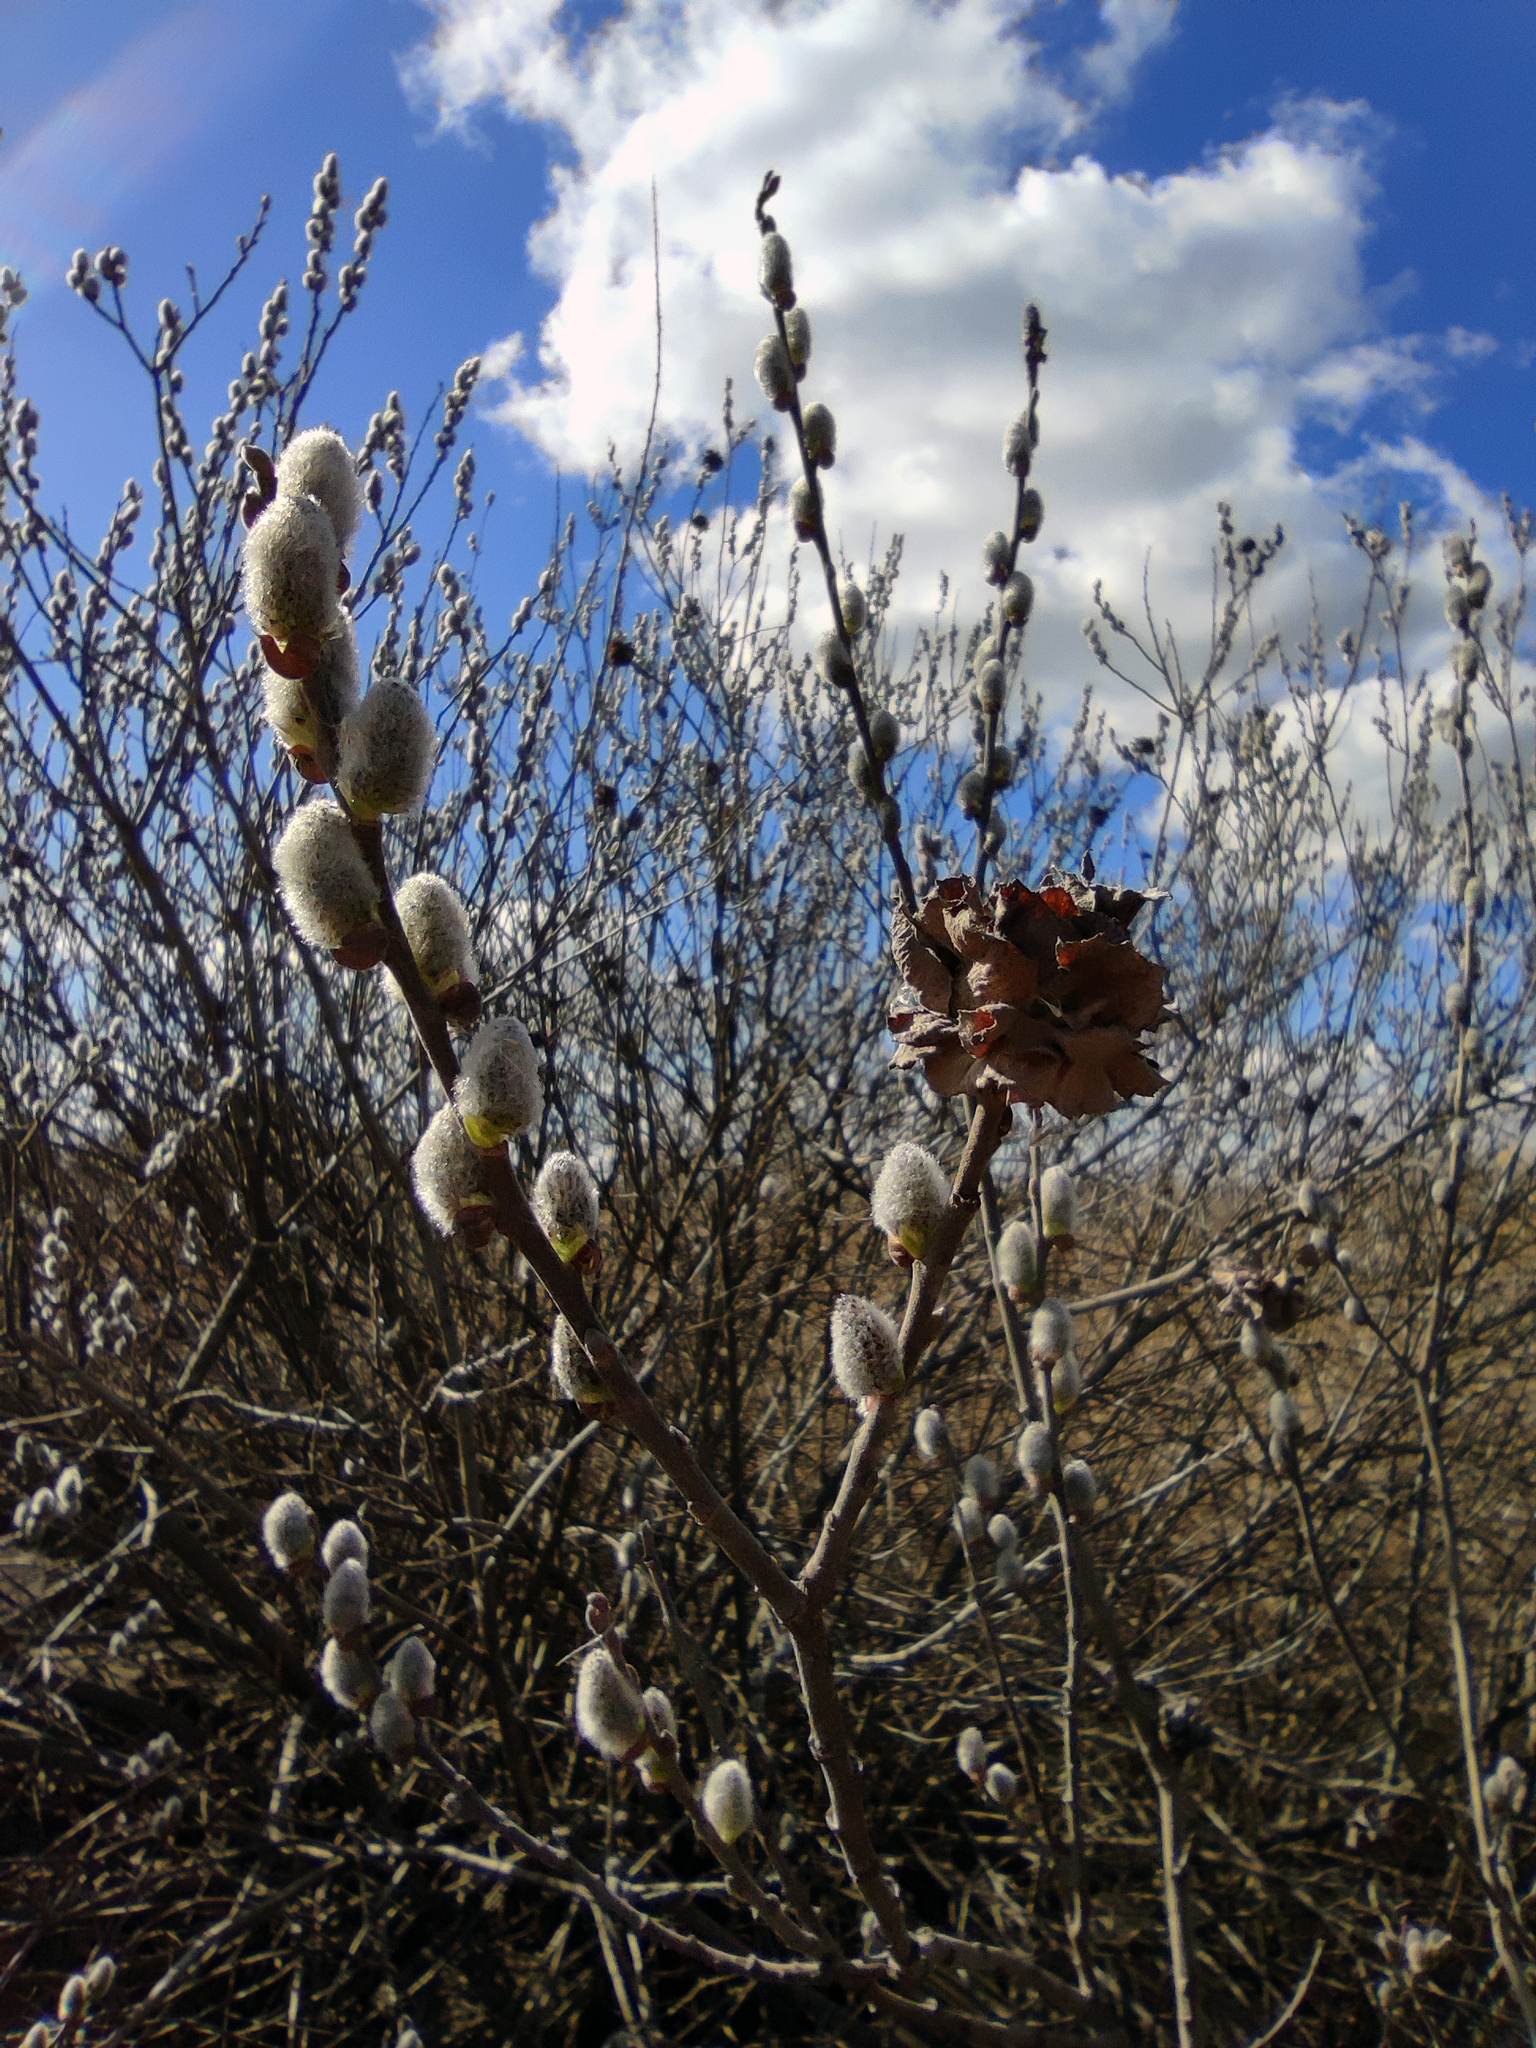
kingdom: Plantae
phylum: Tracheophyta
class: Magnoliopsida
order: Malpighiales
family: Salicaceae
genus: Salix
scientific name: Salix cinerea
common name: Common sallow
